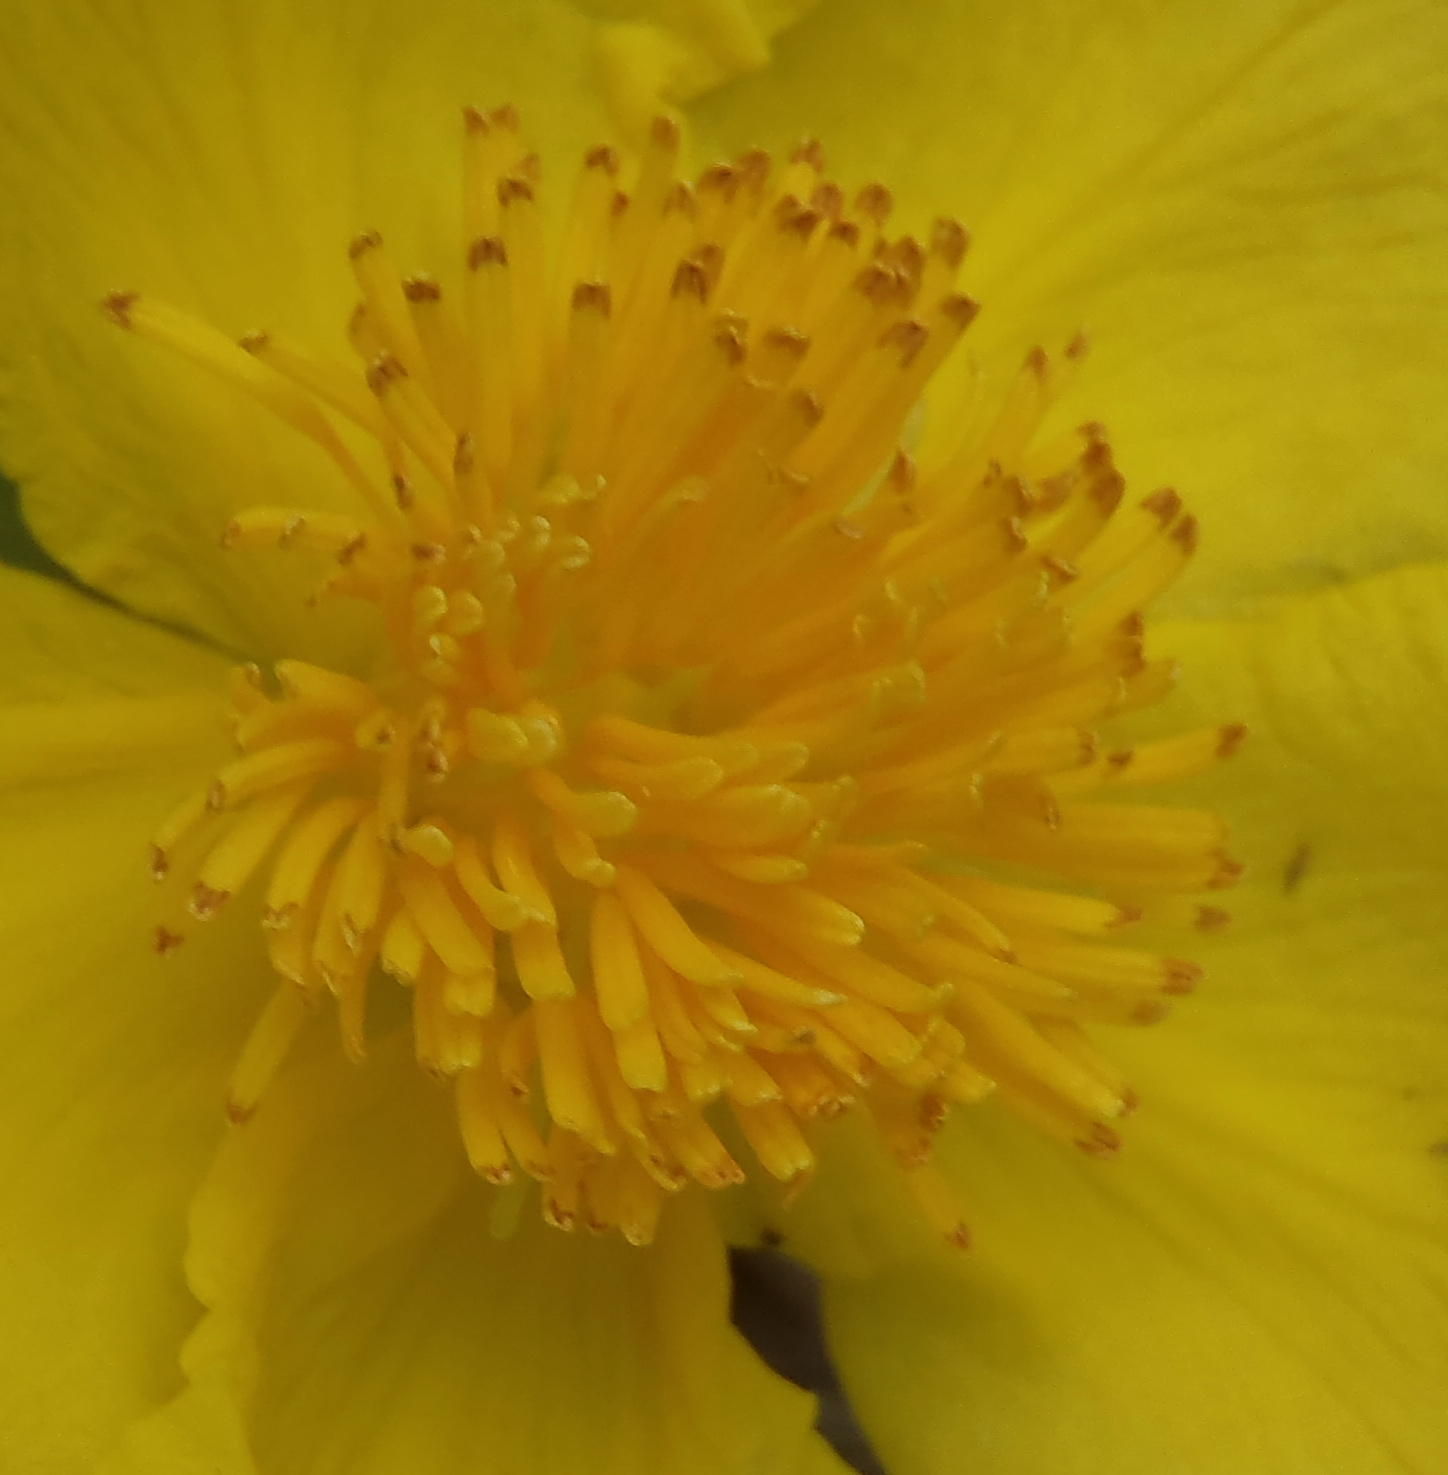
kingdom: Plantae
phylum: Tracheophyta
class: Magnoliopsida
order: Dilleniales
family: Dilleniaceae
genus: Hibbertia
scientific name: Hibbertia scandens
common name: Climbing guinea-flower
